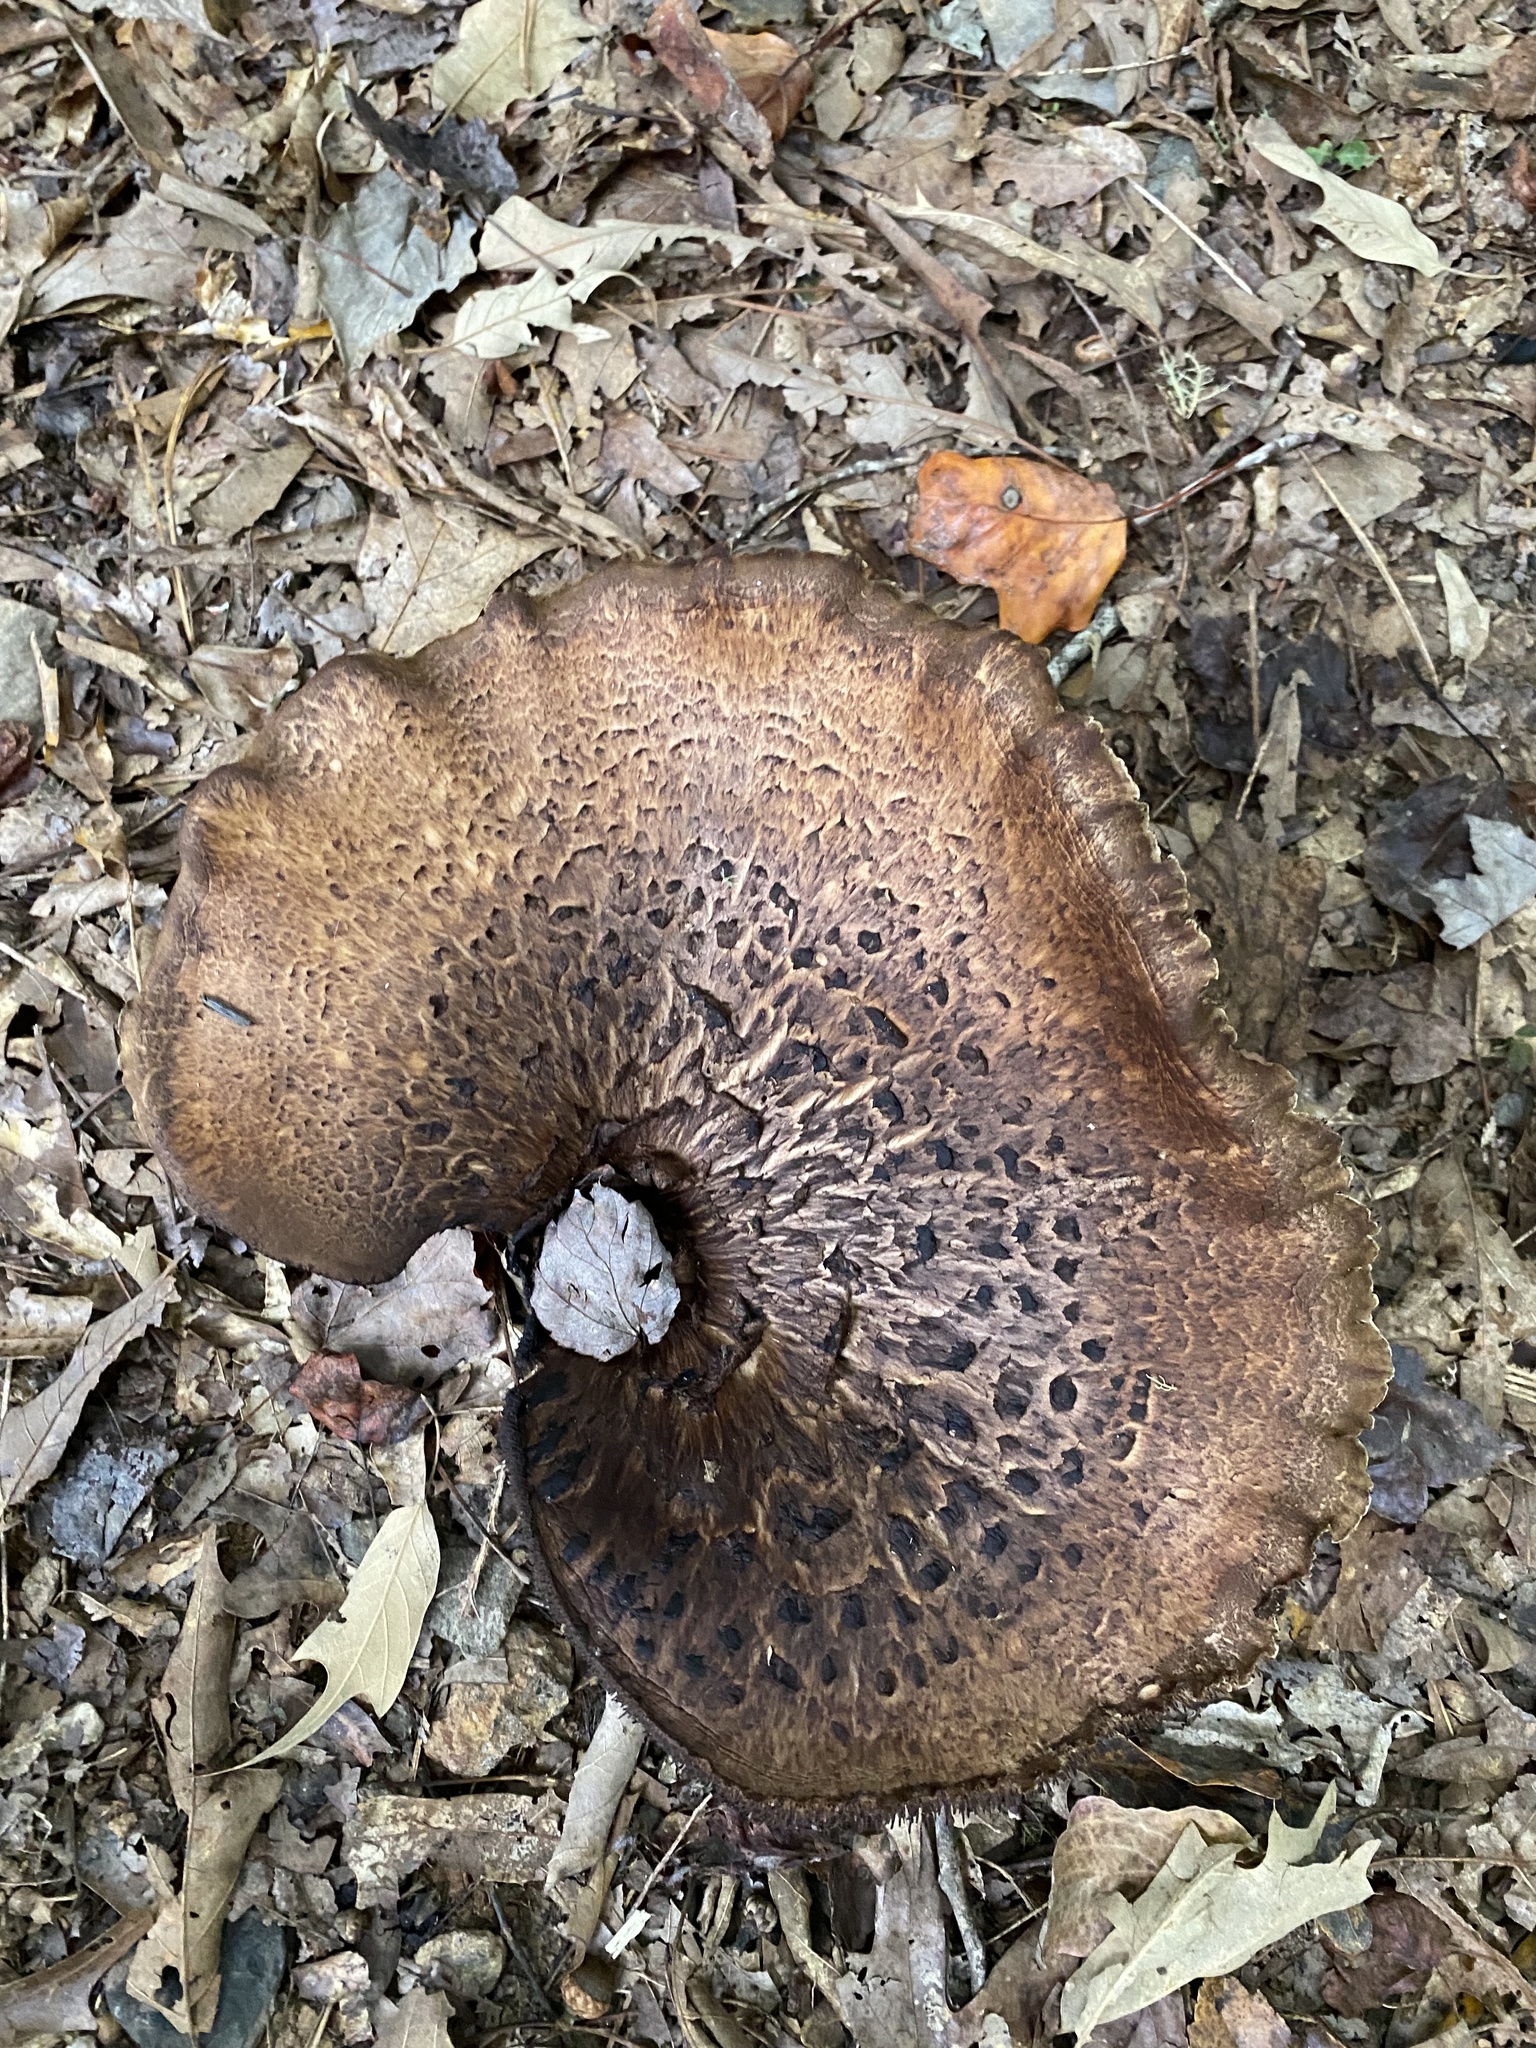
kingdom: Fungi
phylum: Basidiomycota
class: Agaricomycetes
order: Thelephorales
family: Bankeraceae
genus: Sarcodon
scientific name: Sarcodon imbricatus
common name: Shingled hedgehog
